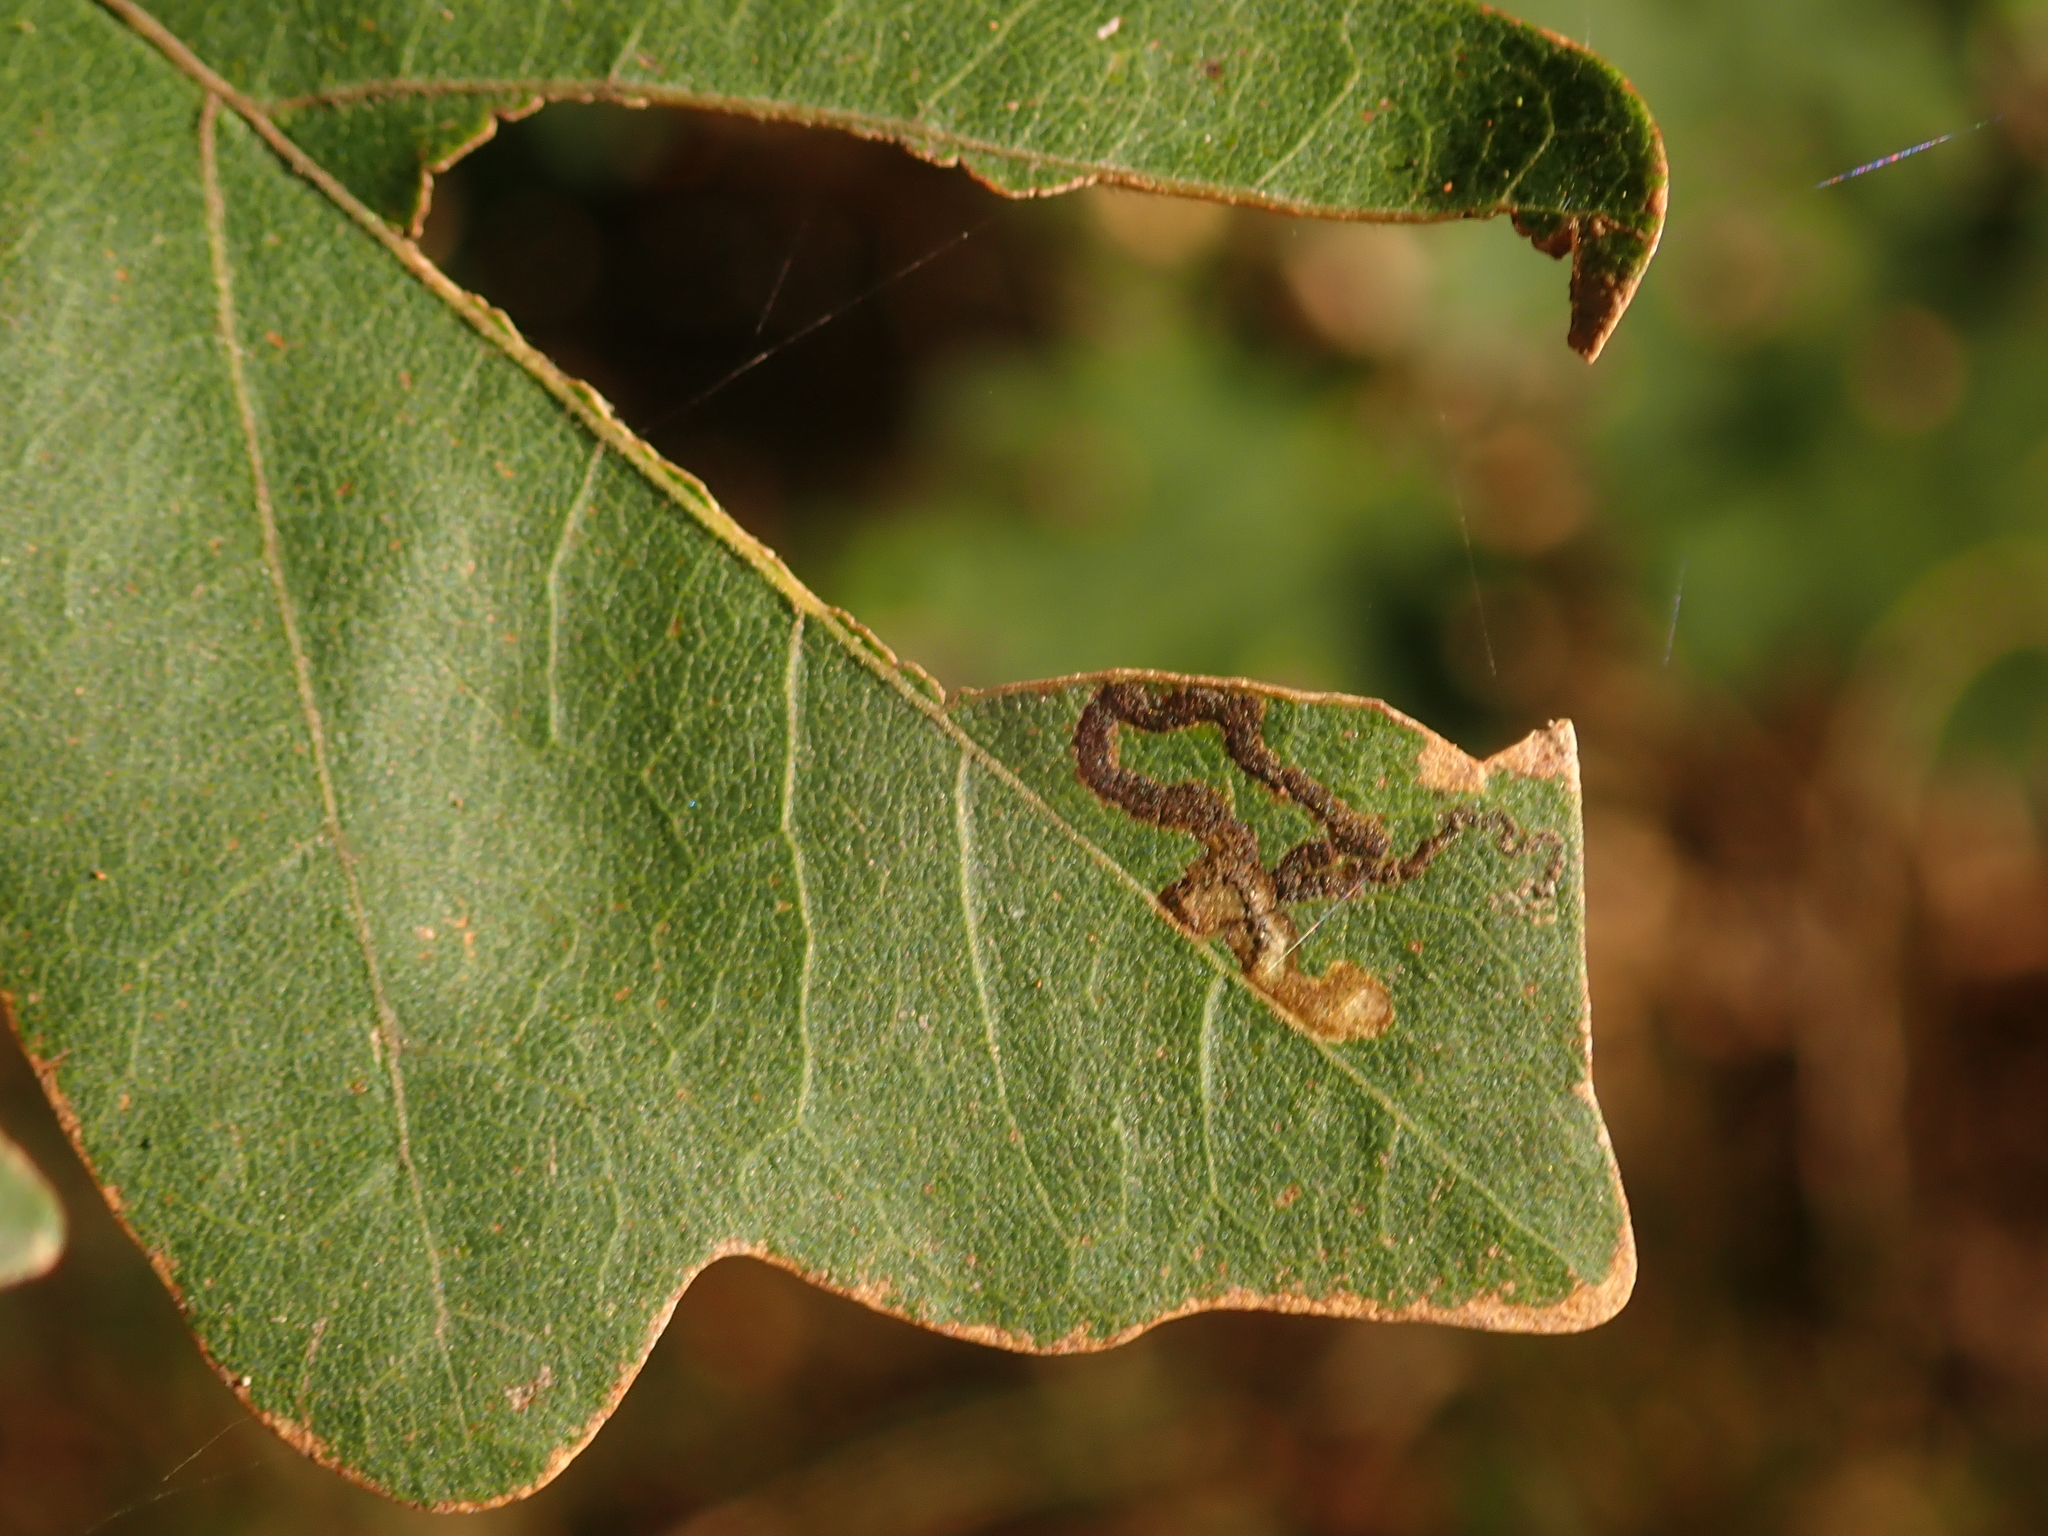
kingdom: Animalia
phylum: Arthropoda
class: Insecta
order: Lepidoptera
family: Nepticulidae
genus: Stigmella
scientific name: Stigmella aceris
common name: Scarce maple pigmy
